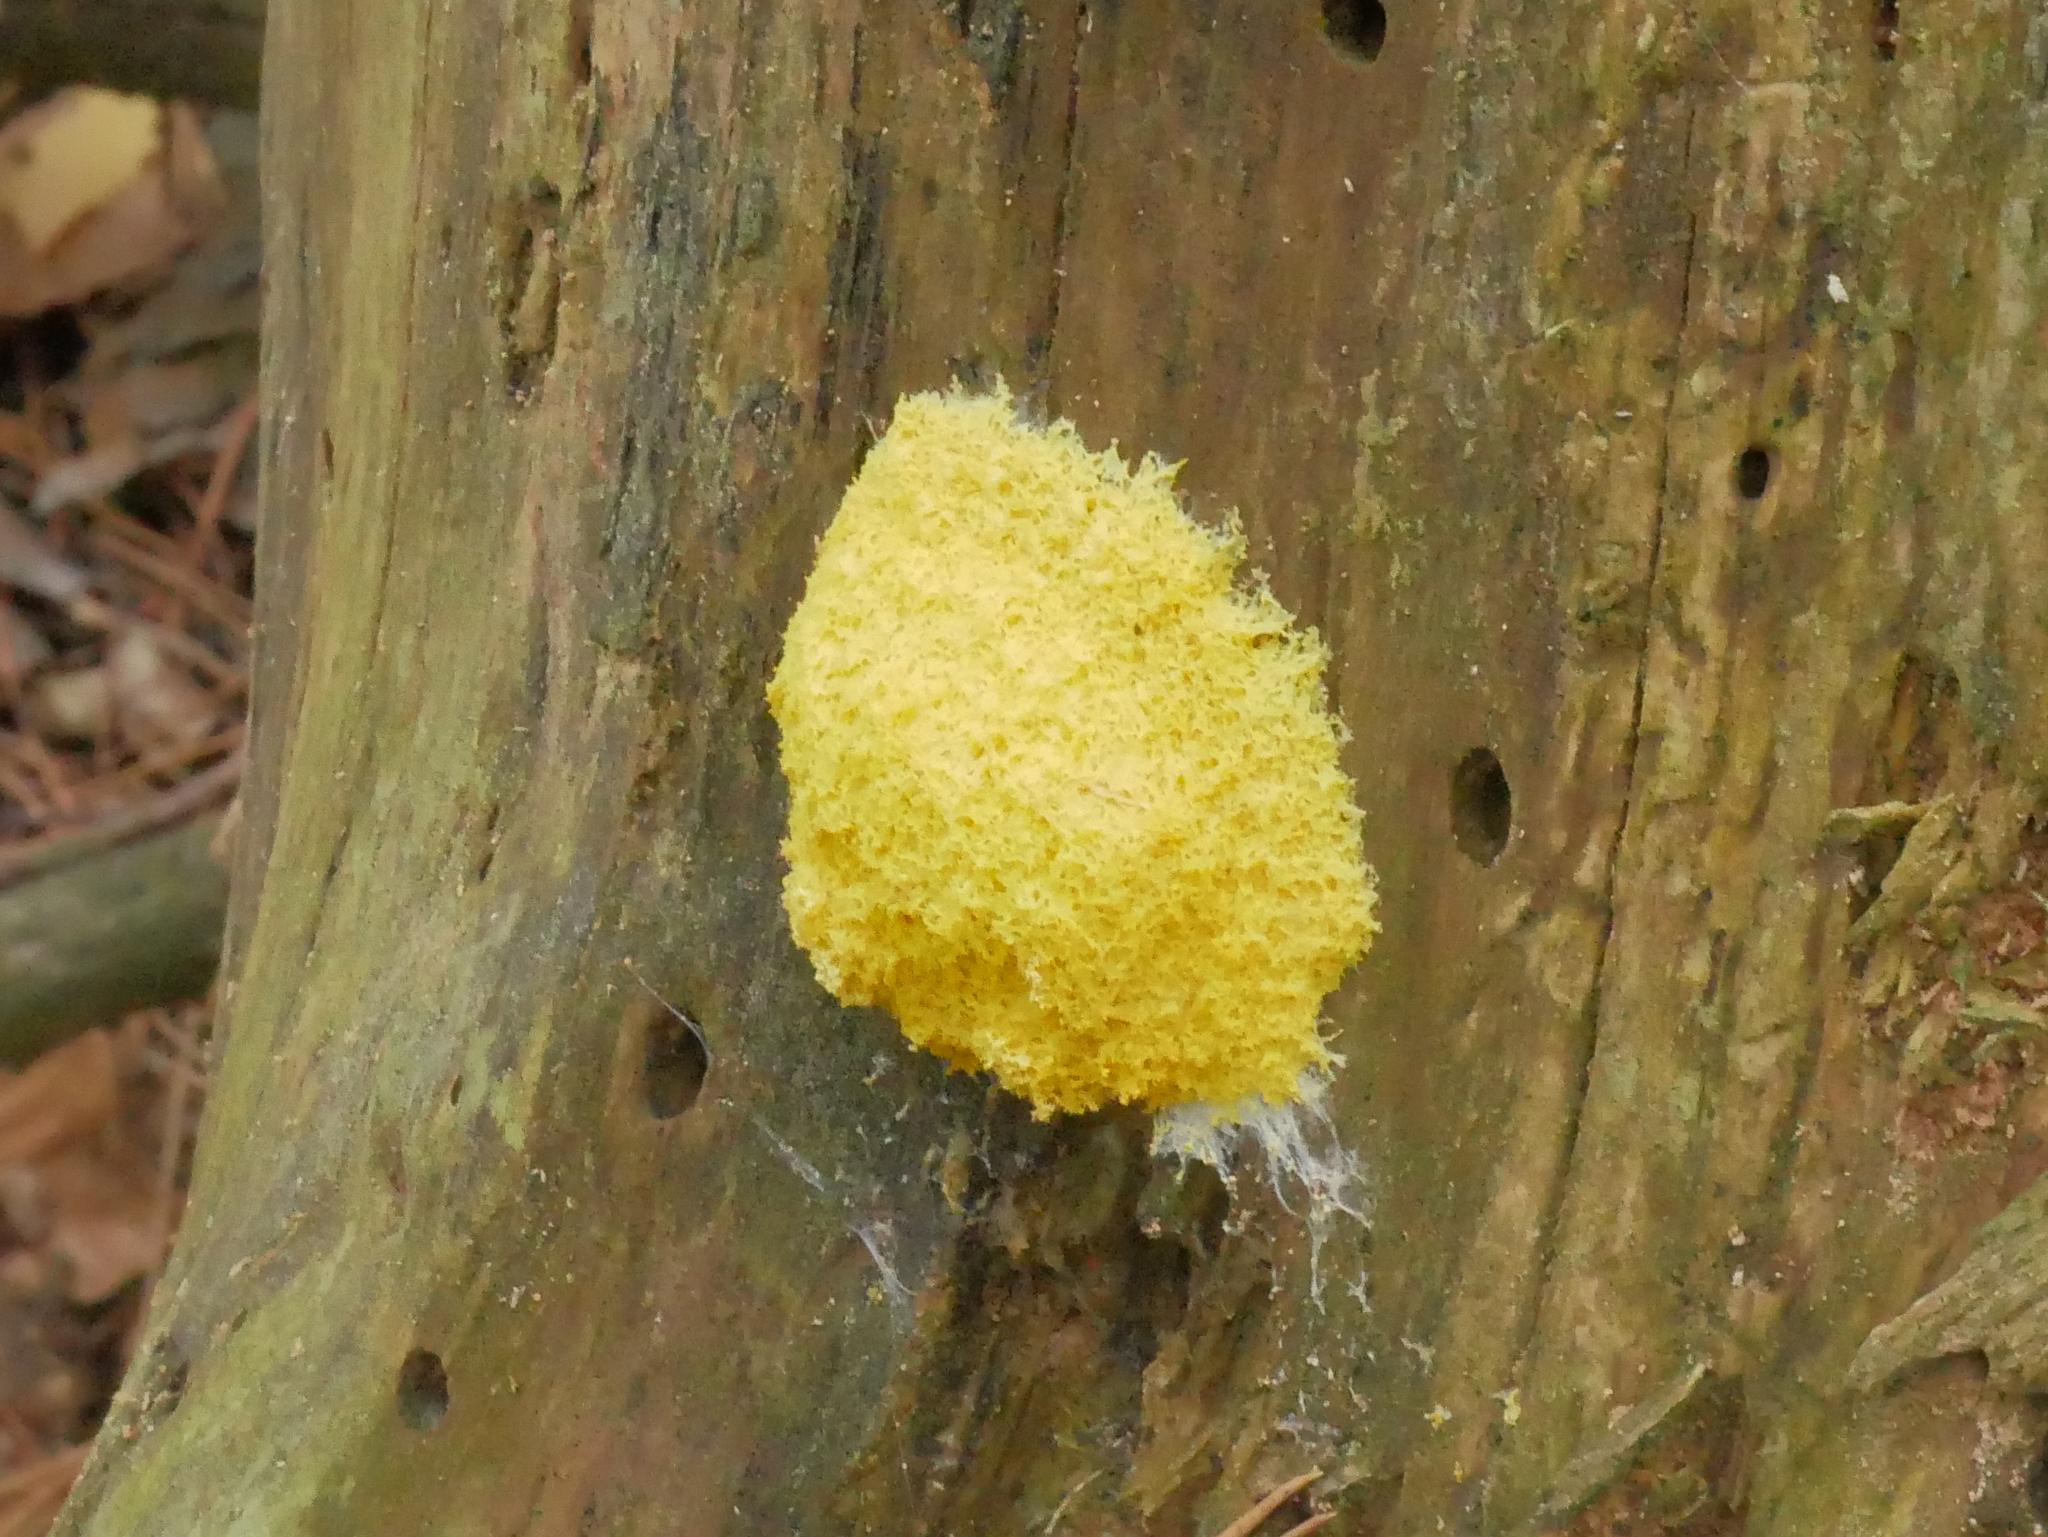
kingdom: Protozoa
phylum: Mycetozoa
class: Myxomycetes
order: Physarales
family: Physaraceae
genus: Fuligo
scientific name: Fuligo septica
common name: Dog vomit slime mold
